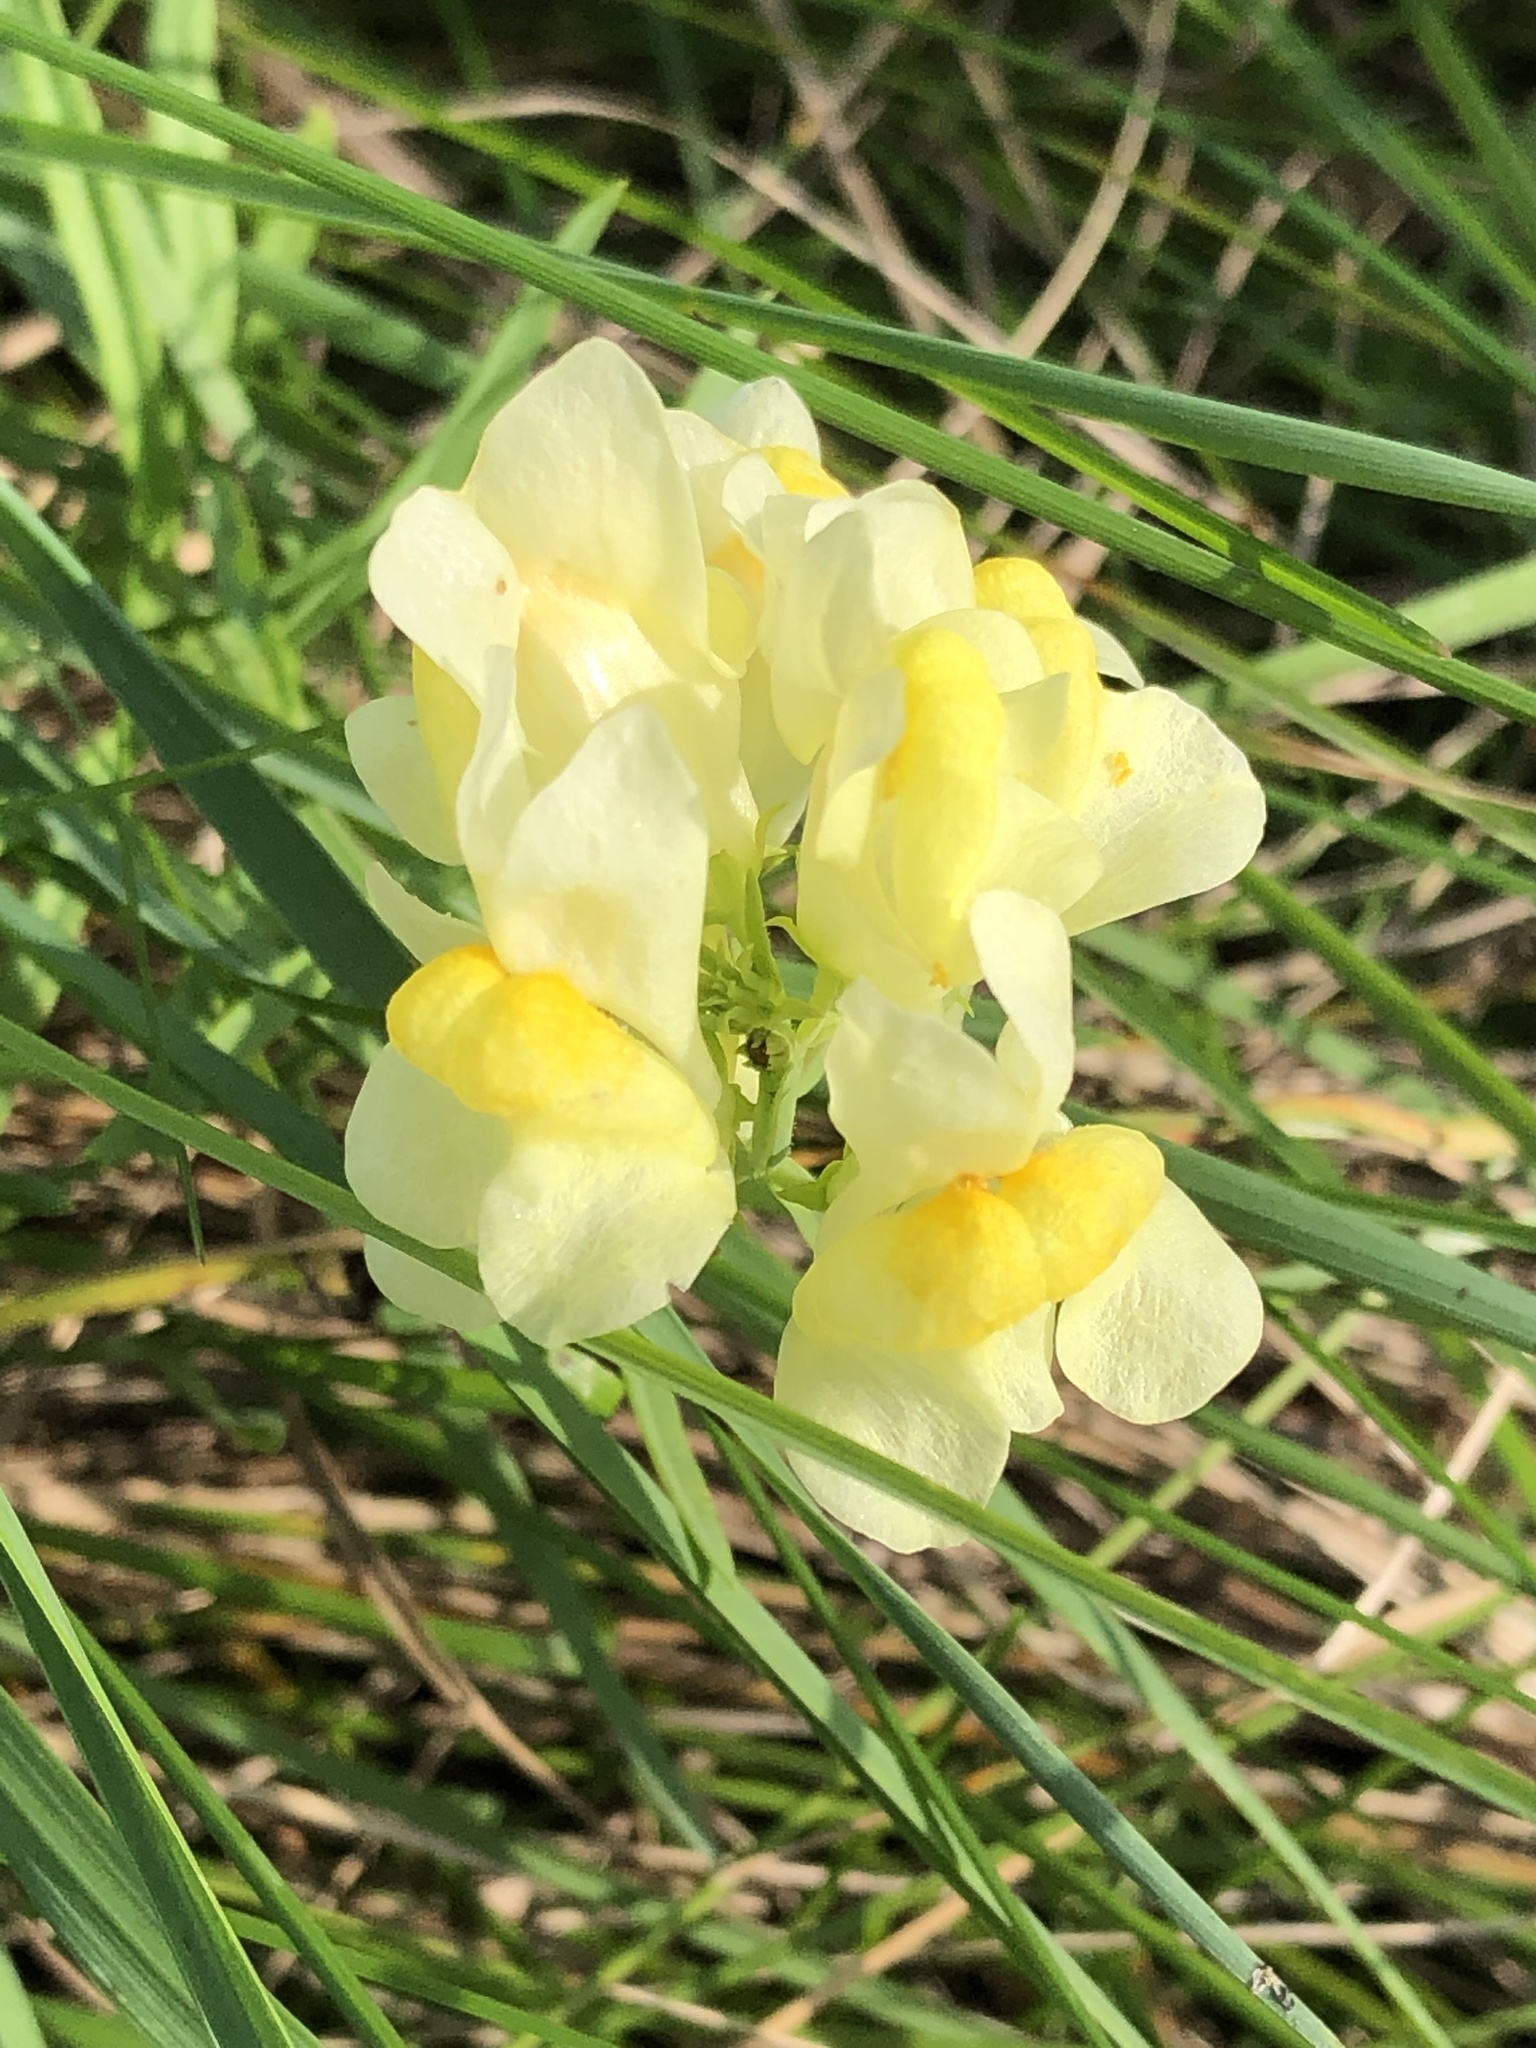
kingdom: Plantae
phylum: Tracheophyta
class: Magnoliopsida
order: Lamiales
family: Plantaginaceae
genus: Linaria
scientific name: Linaria vulgaris
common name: Butter and eggs
